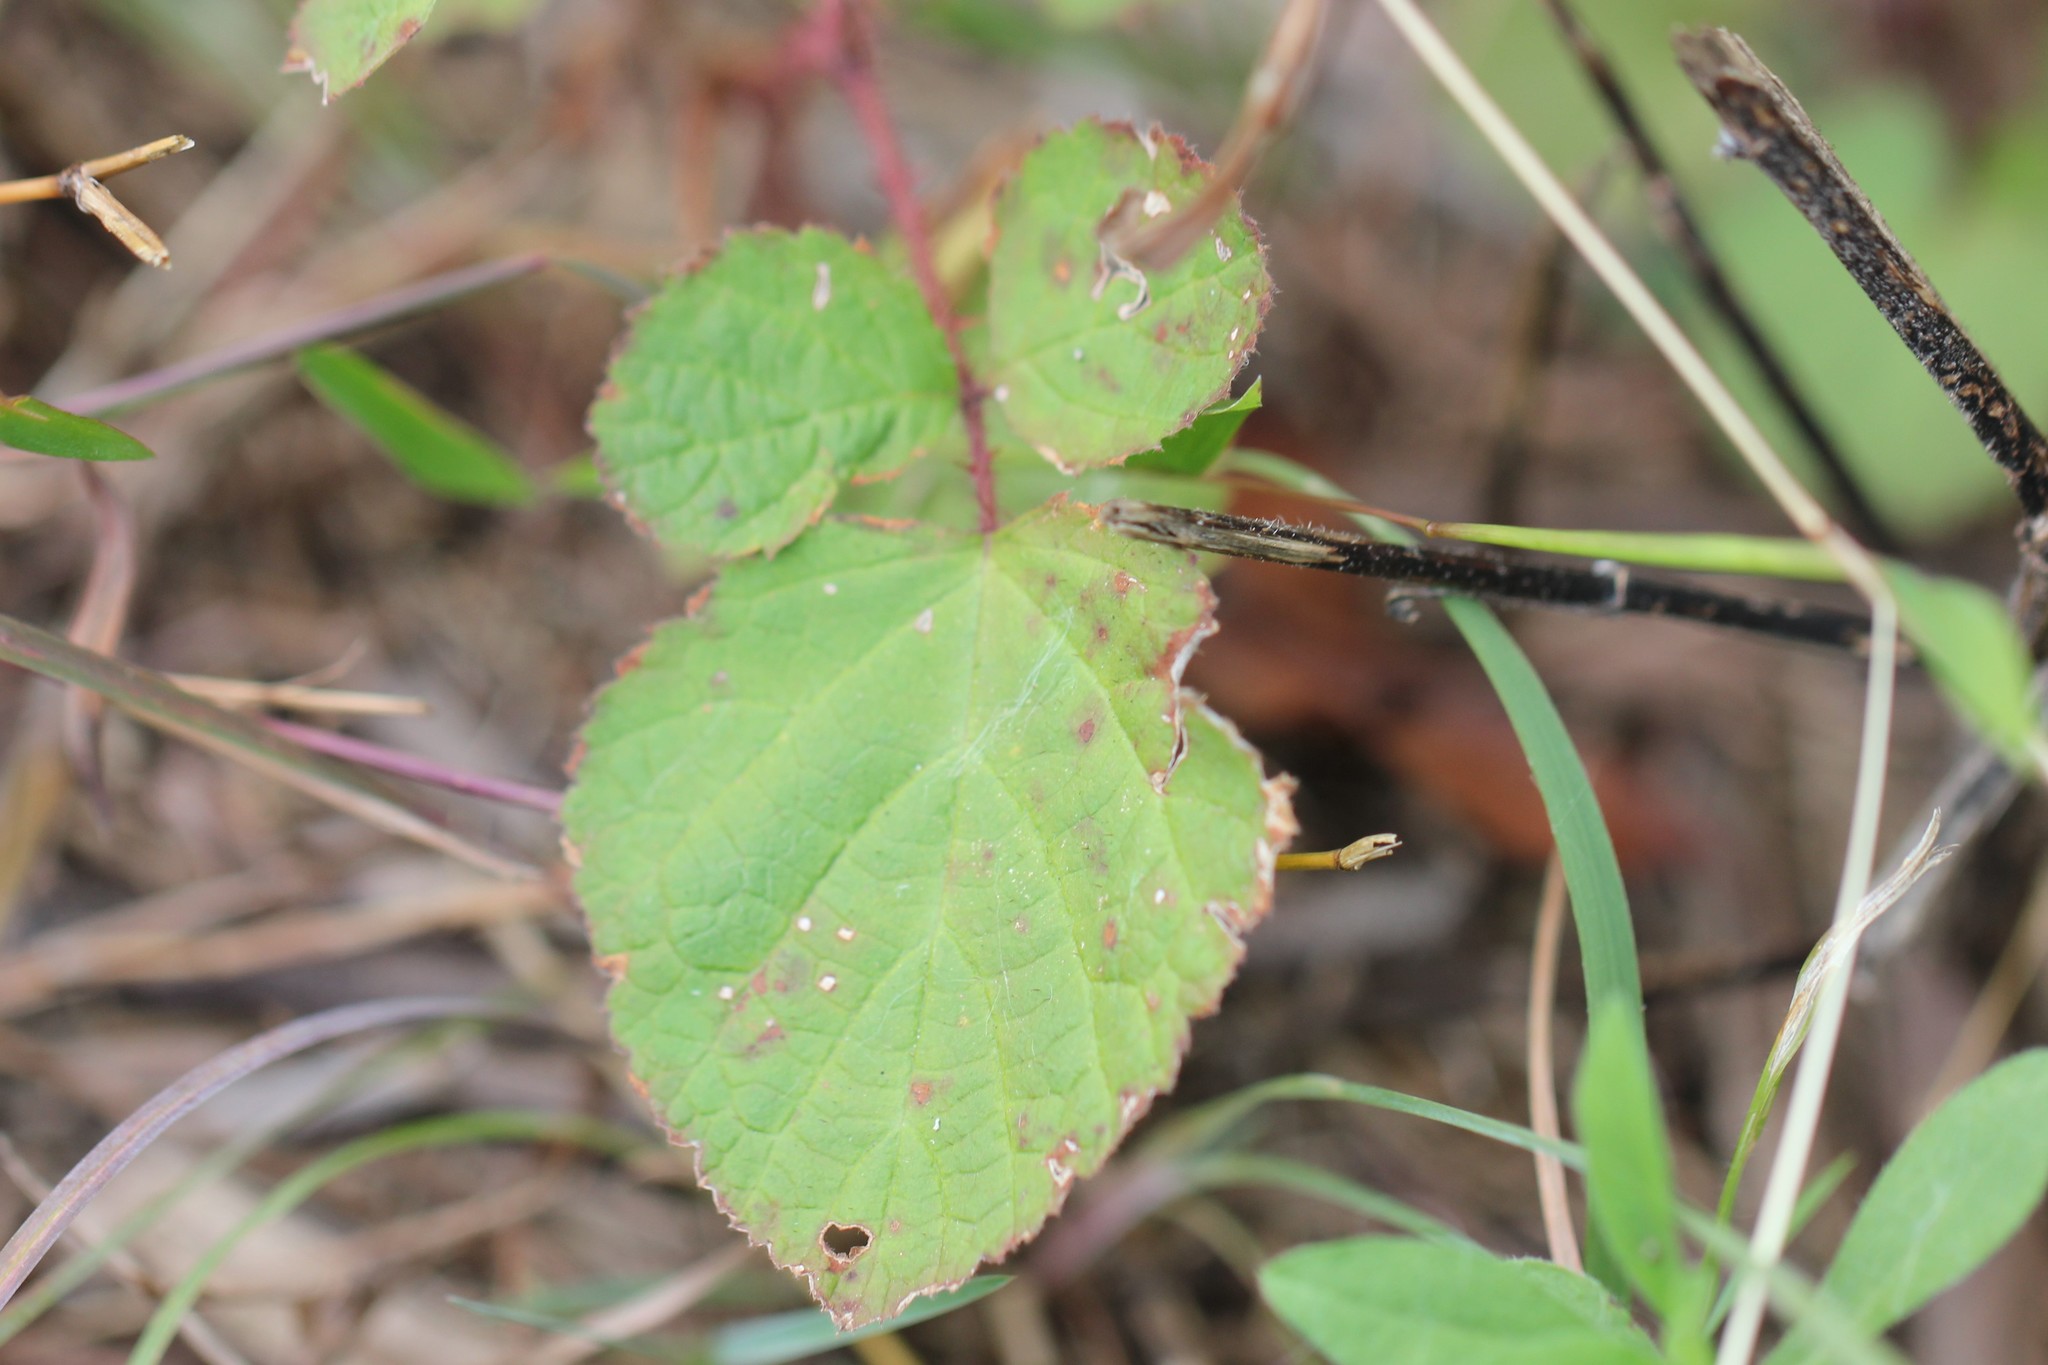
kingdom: Plantae
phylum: Tracheophyta
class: Magnoliopsida
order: Rosales
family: Rosaceae
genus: Rubus
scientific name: Rubus phoenicolasius
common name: Japanese wineberry
